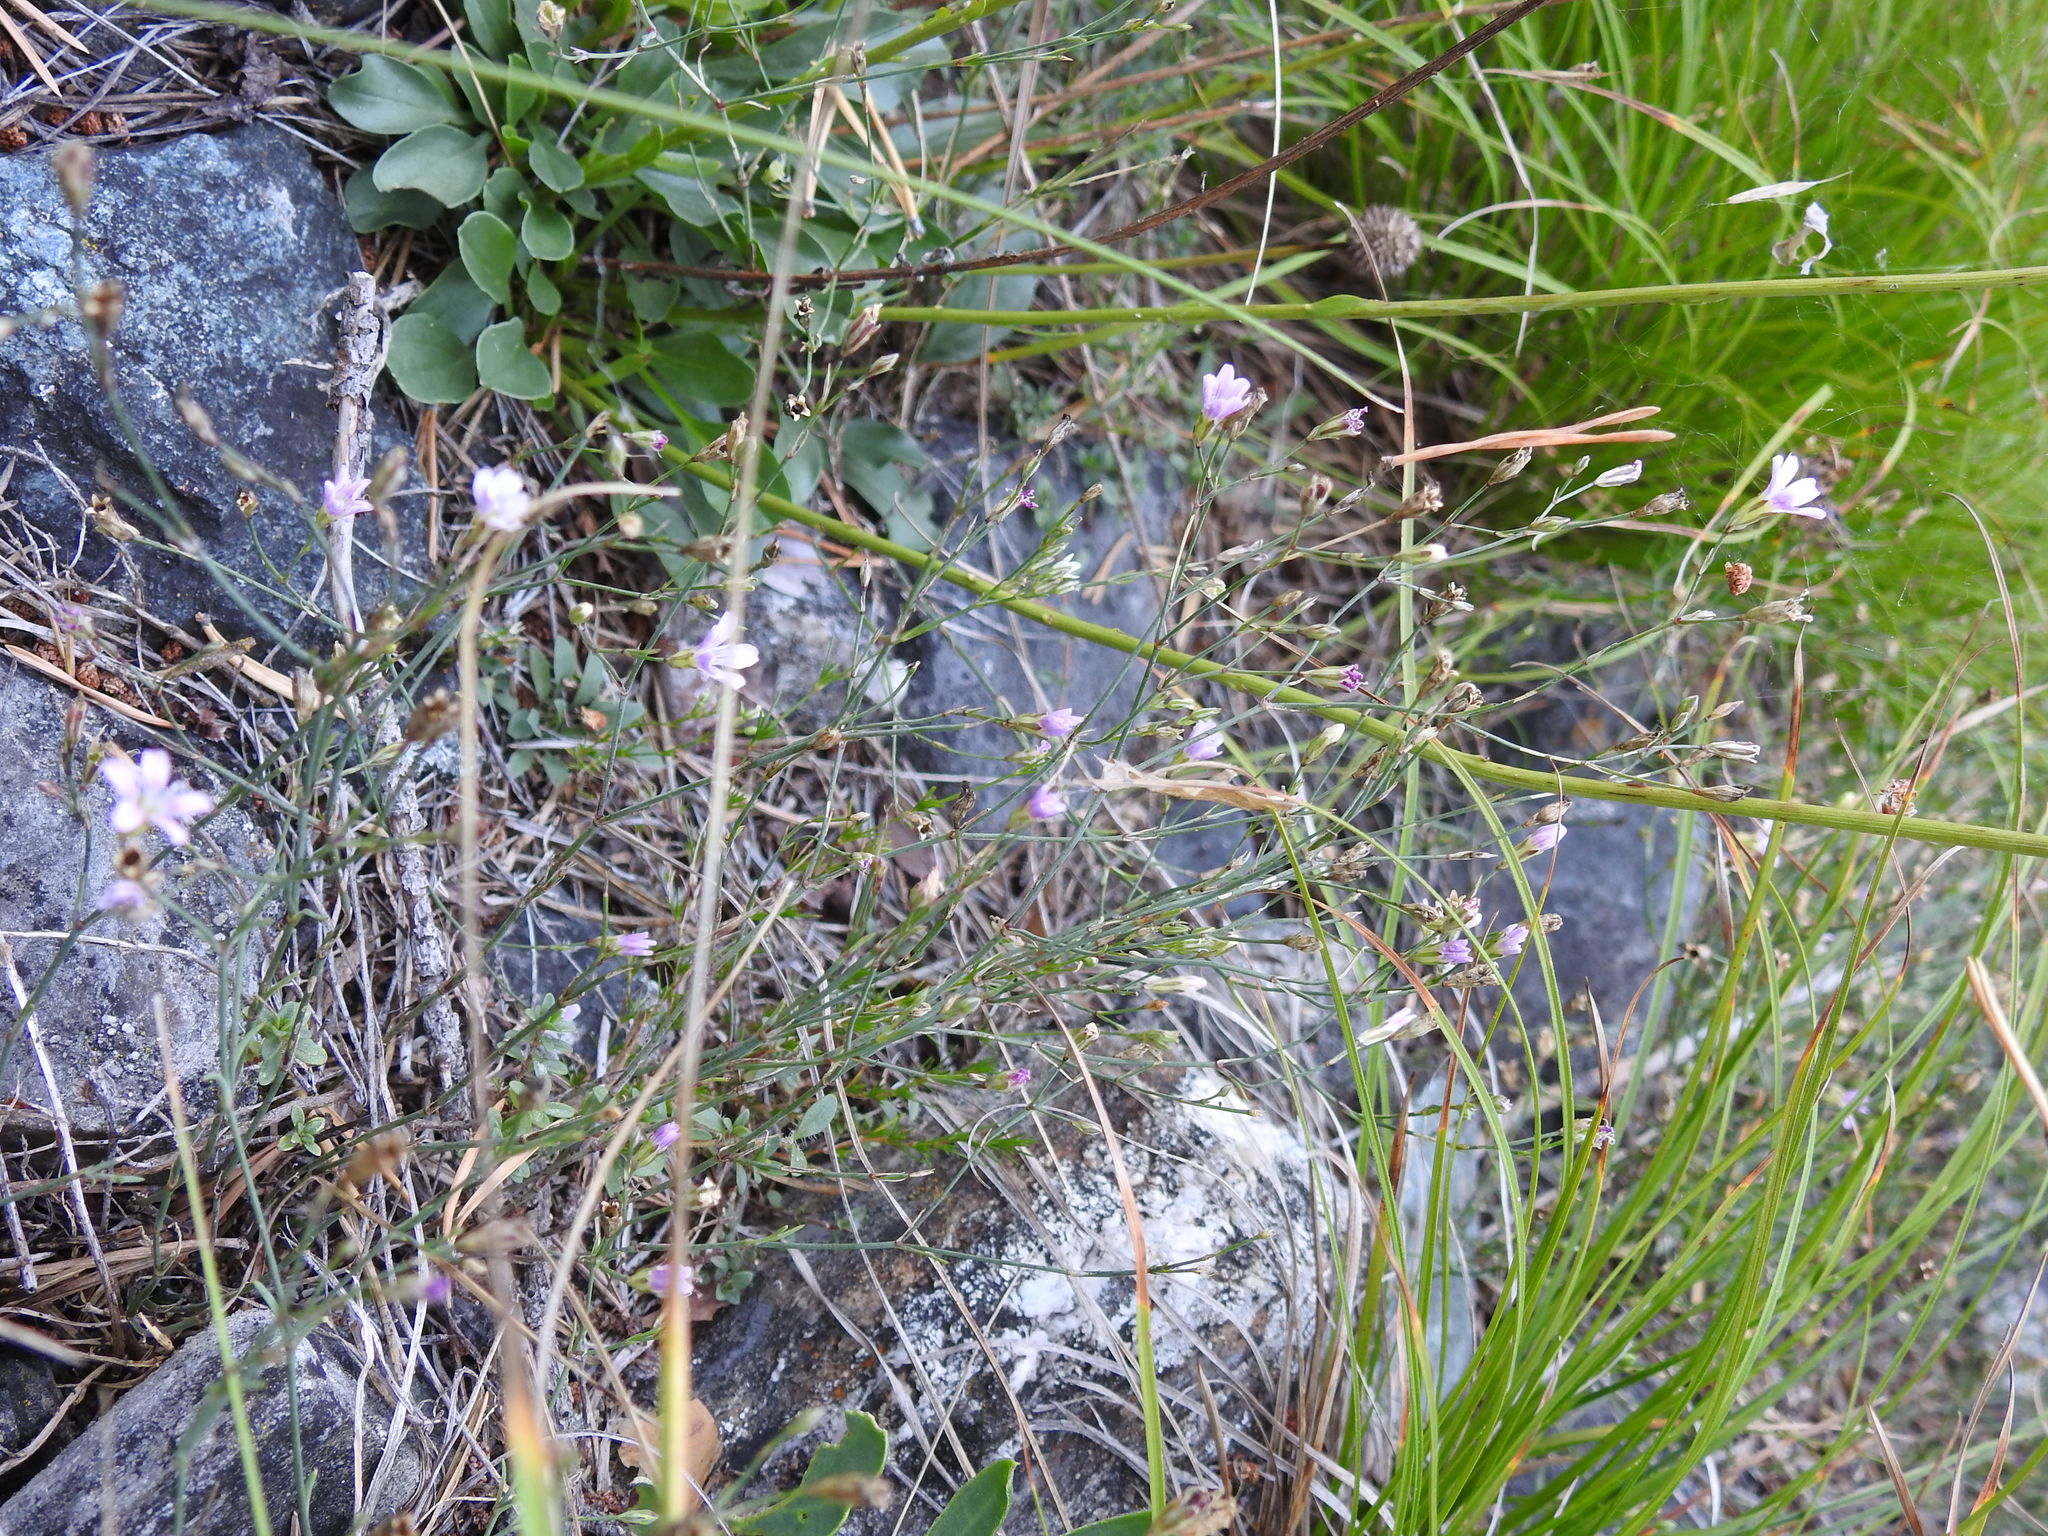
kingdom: Plantae
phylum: Tracheophyta
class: Magnoliopsida
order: Caryophyllales
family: Caryophyllaceae
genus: Petrorhagia
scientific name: Petrorhagia saxifraga
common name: Tunicflower
